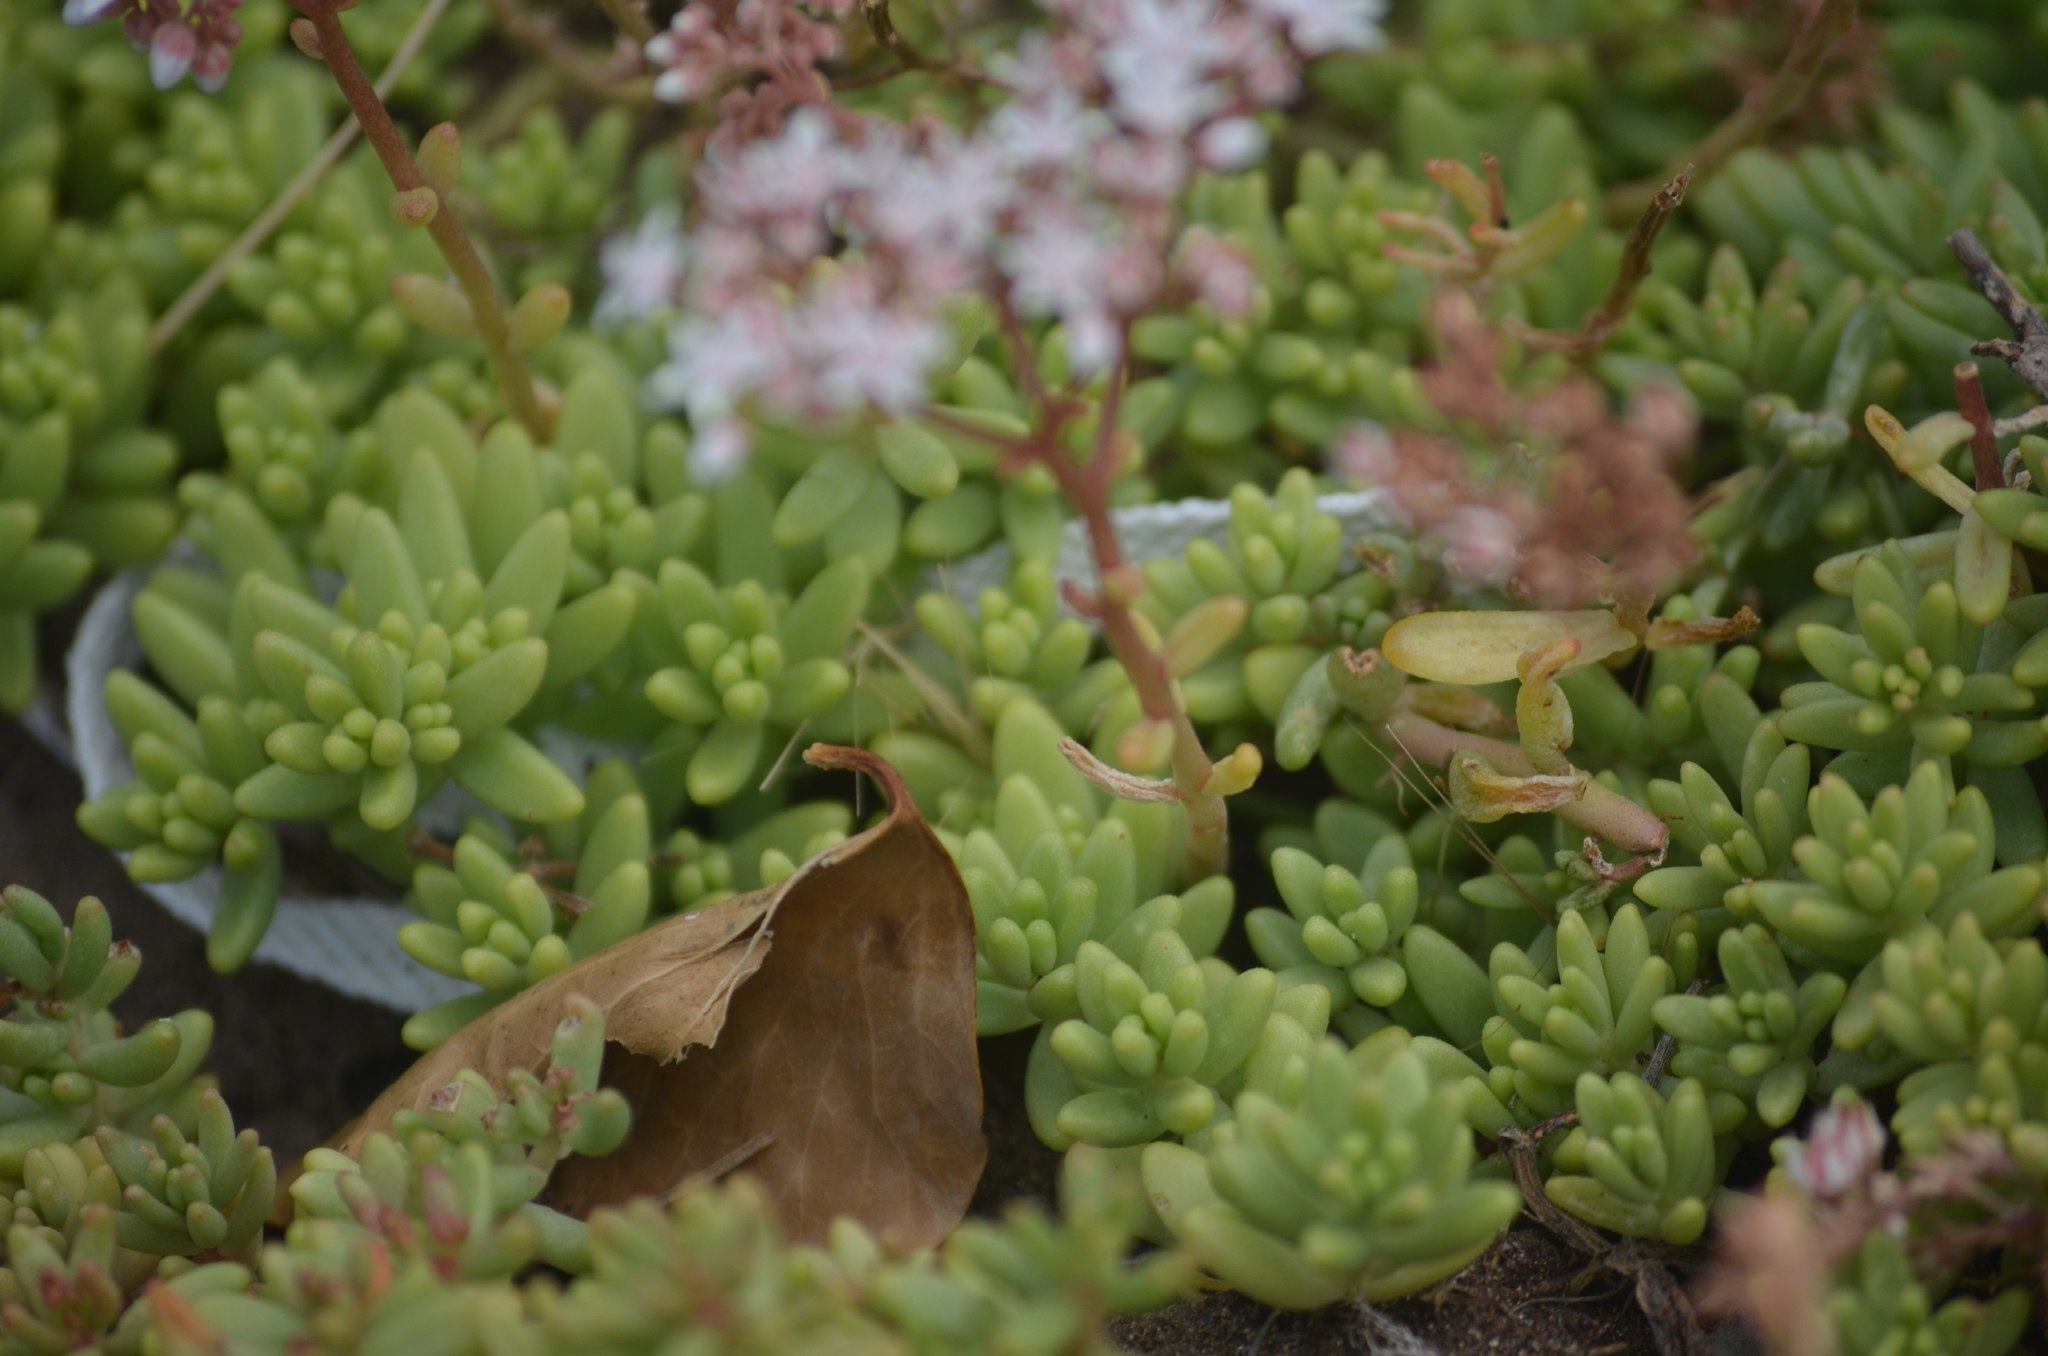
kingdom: Plantae
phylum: Tracheophyta
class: Magnoliopsida
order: Saxifragales
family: Crassulaceae
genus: Sedum
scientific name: Sedum album
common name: White stonecrop
